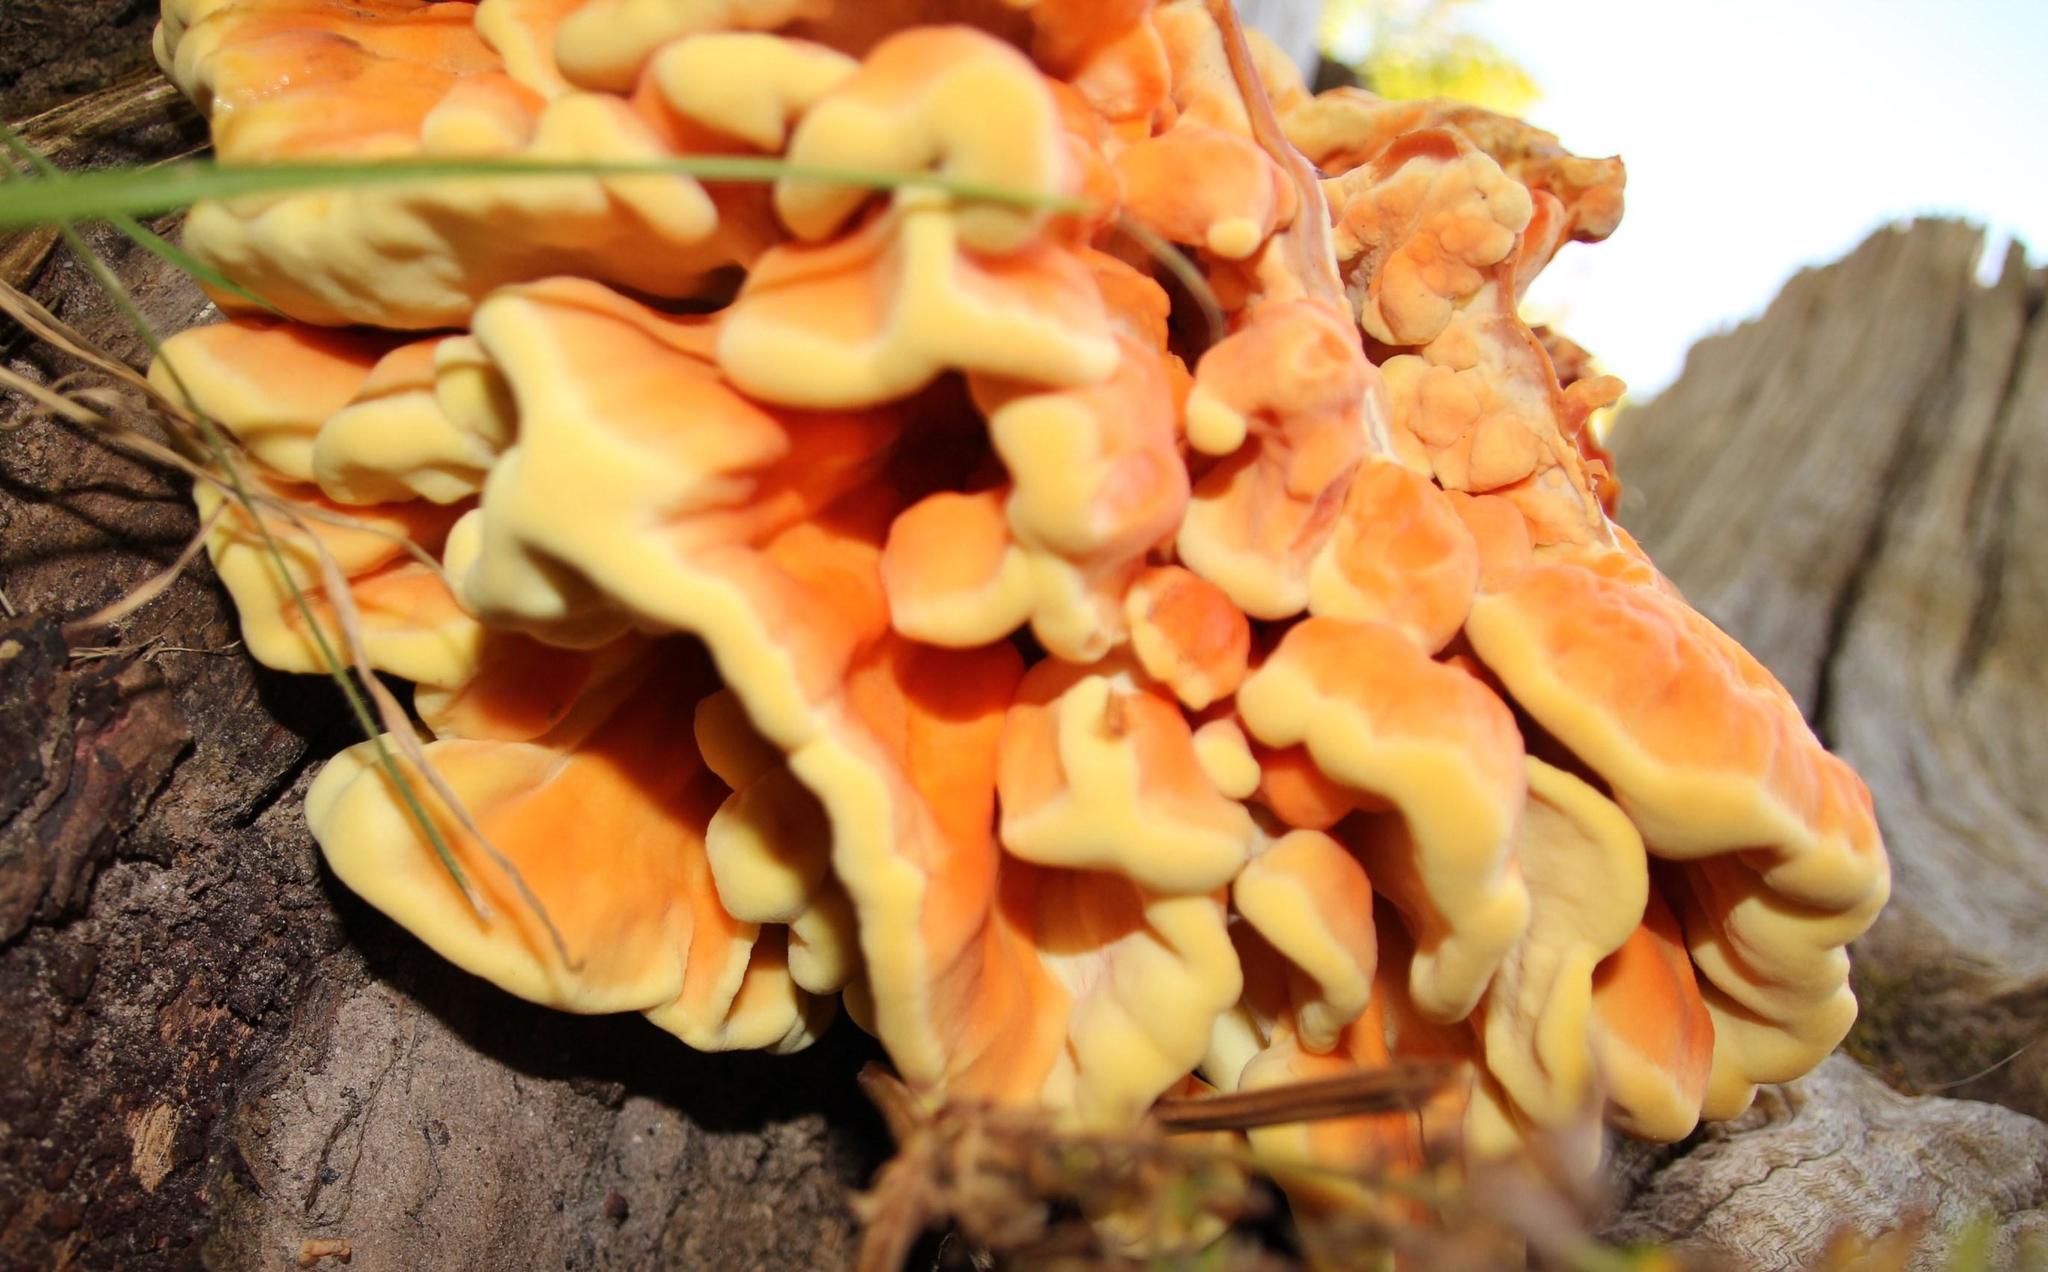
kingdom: Fungi
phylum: Basidiomycota
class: Agaricomycetes
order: Polyporales
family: Laetiporaceae
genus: Laetiporus
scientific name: Laetiporus sulphureus
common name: Chicken of the woods
